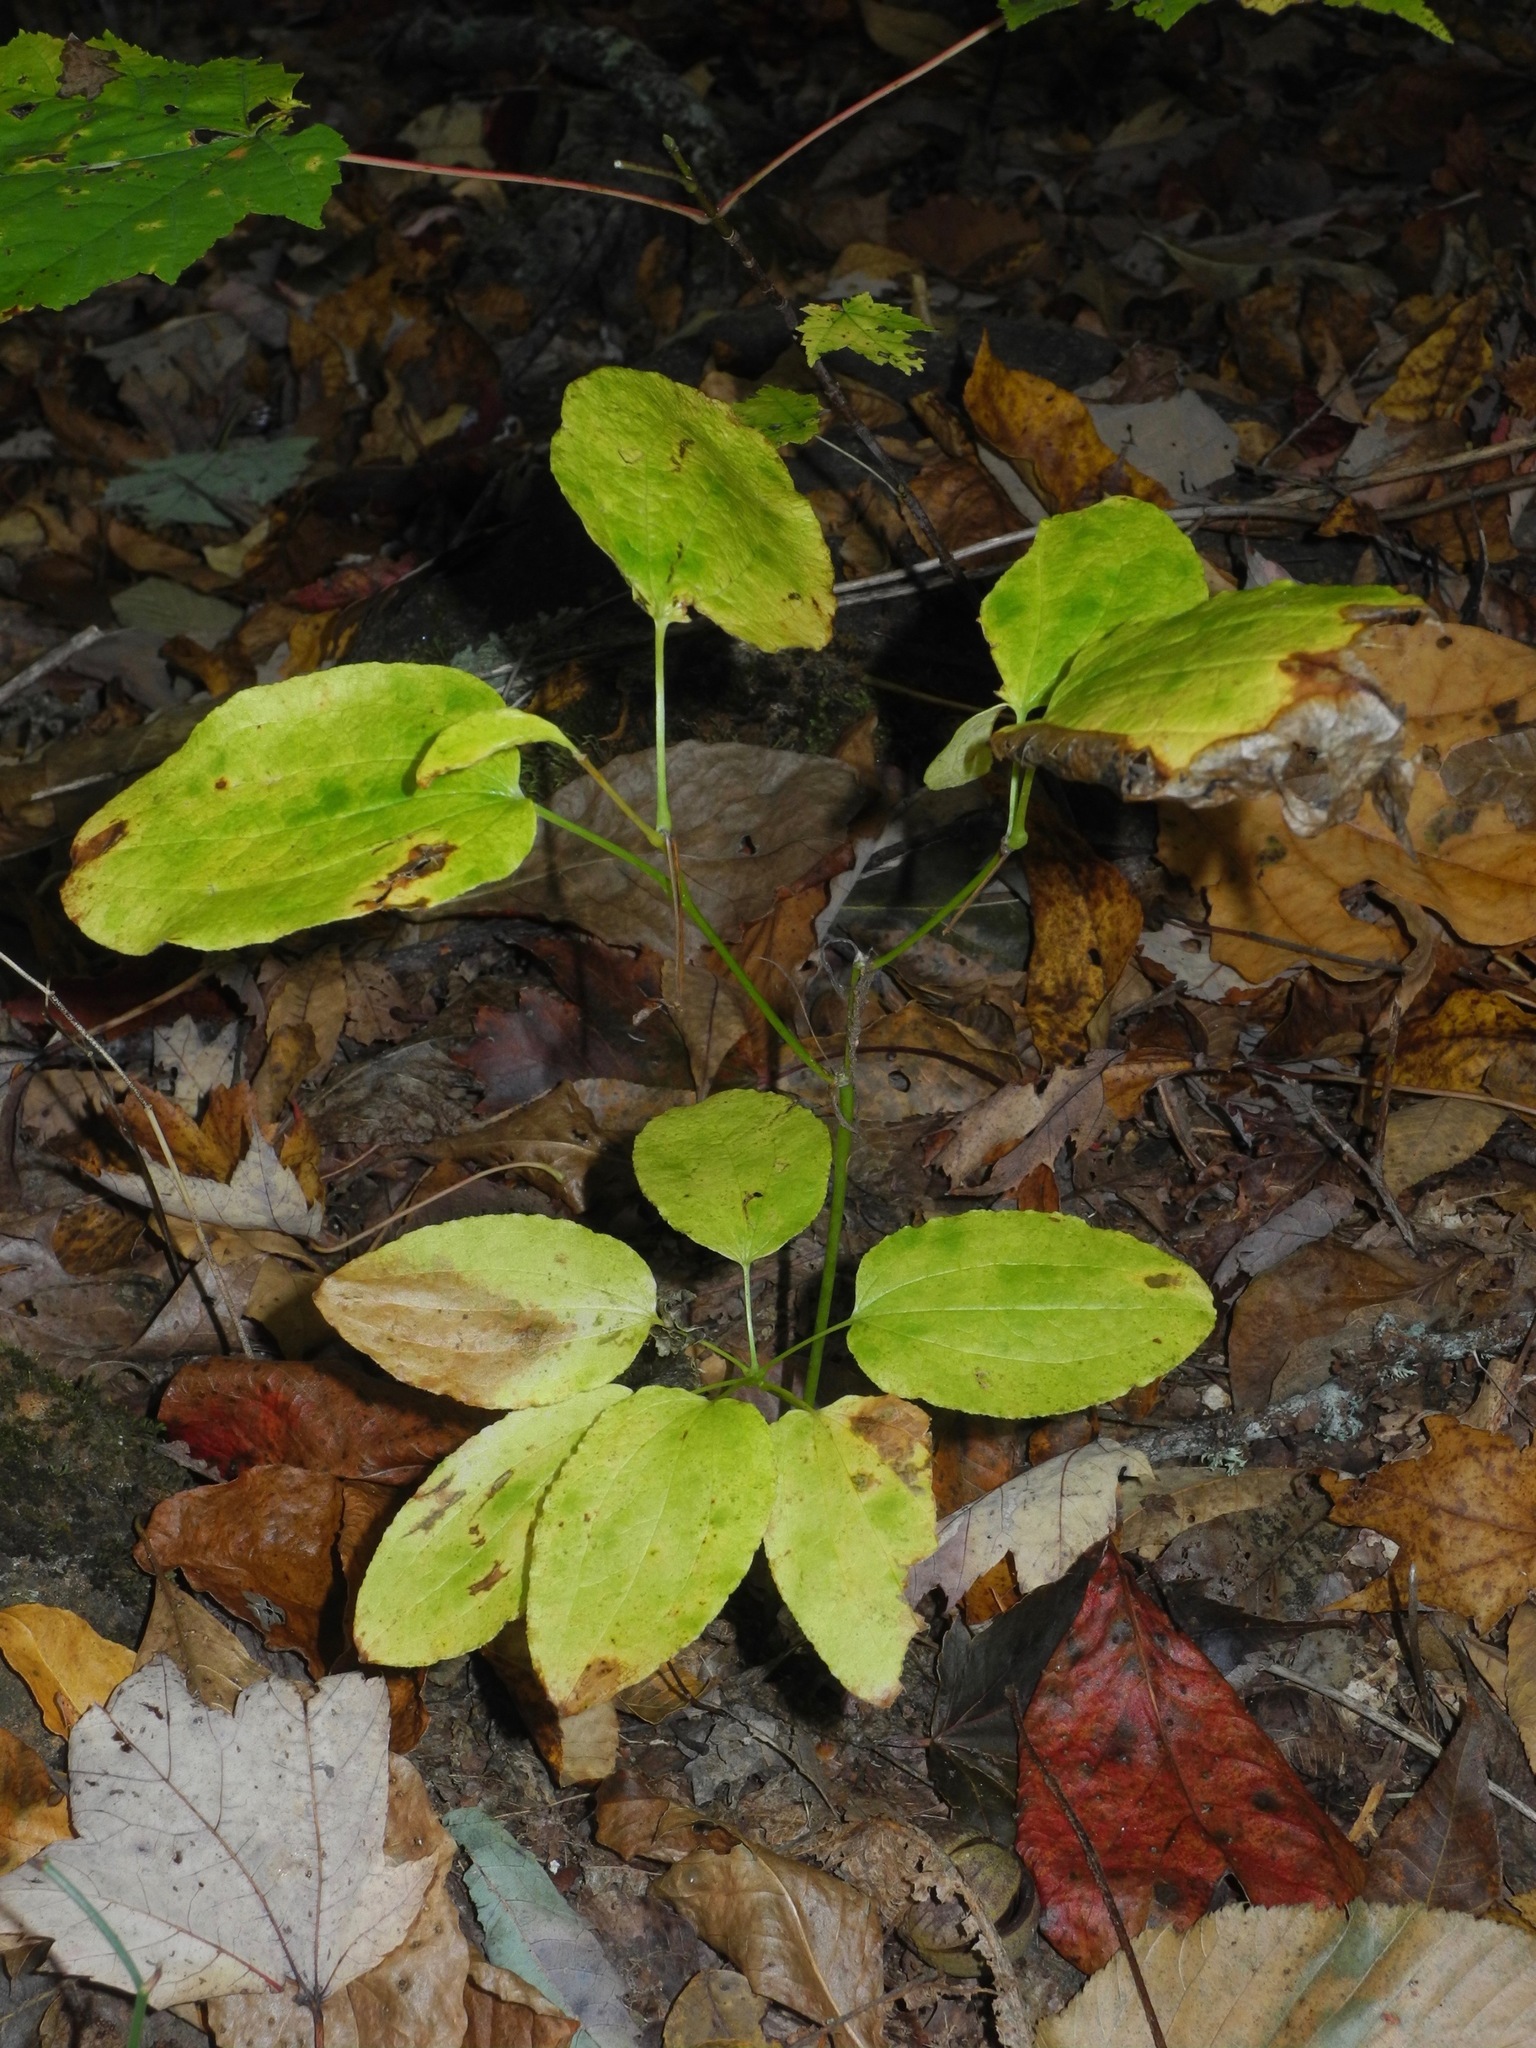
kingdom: Plantae
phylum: Tracheophyta
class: Liliopsida
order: Liliales
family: Smilacaceae
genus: Smilax
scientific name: Smilax hugeri
